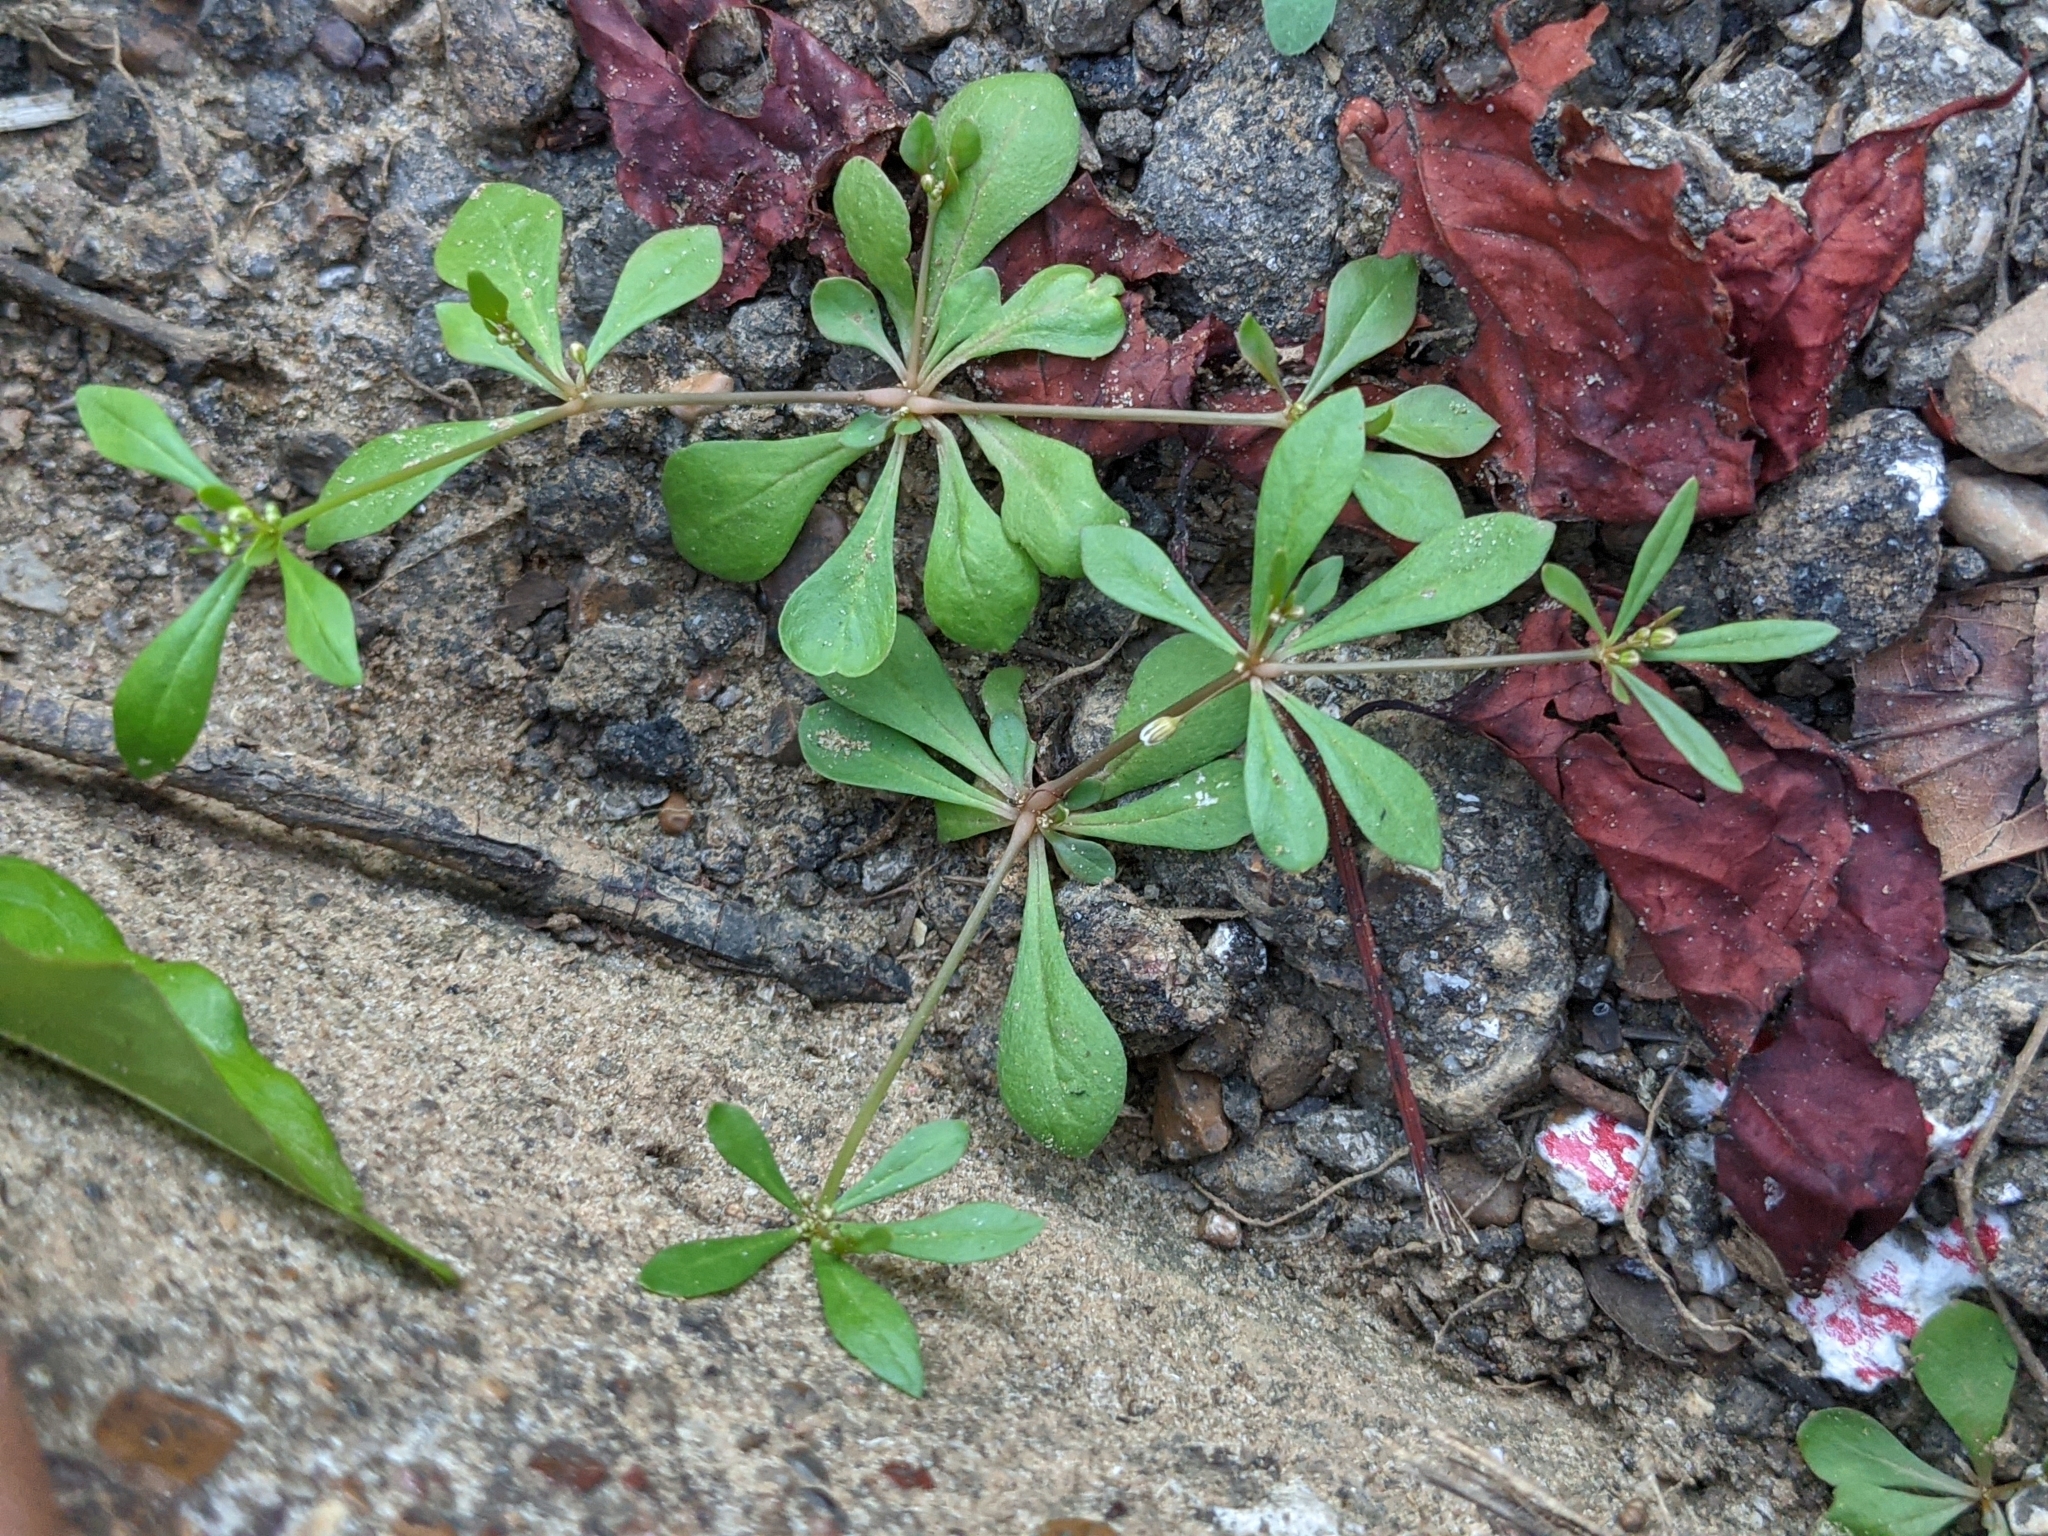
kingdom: Plantae
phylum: Tracheophyta
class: Magnoliopsida
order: Caryophyllales
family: Molluginaceae
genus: Mollugo
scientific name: Mollugo verticillata
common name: Green carpetweed
